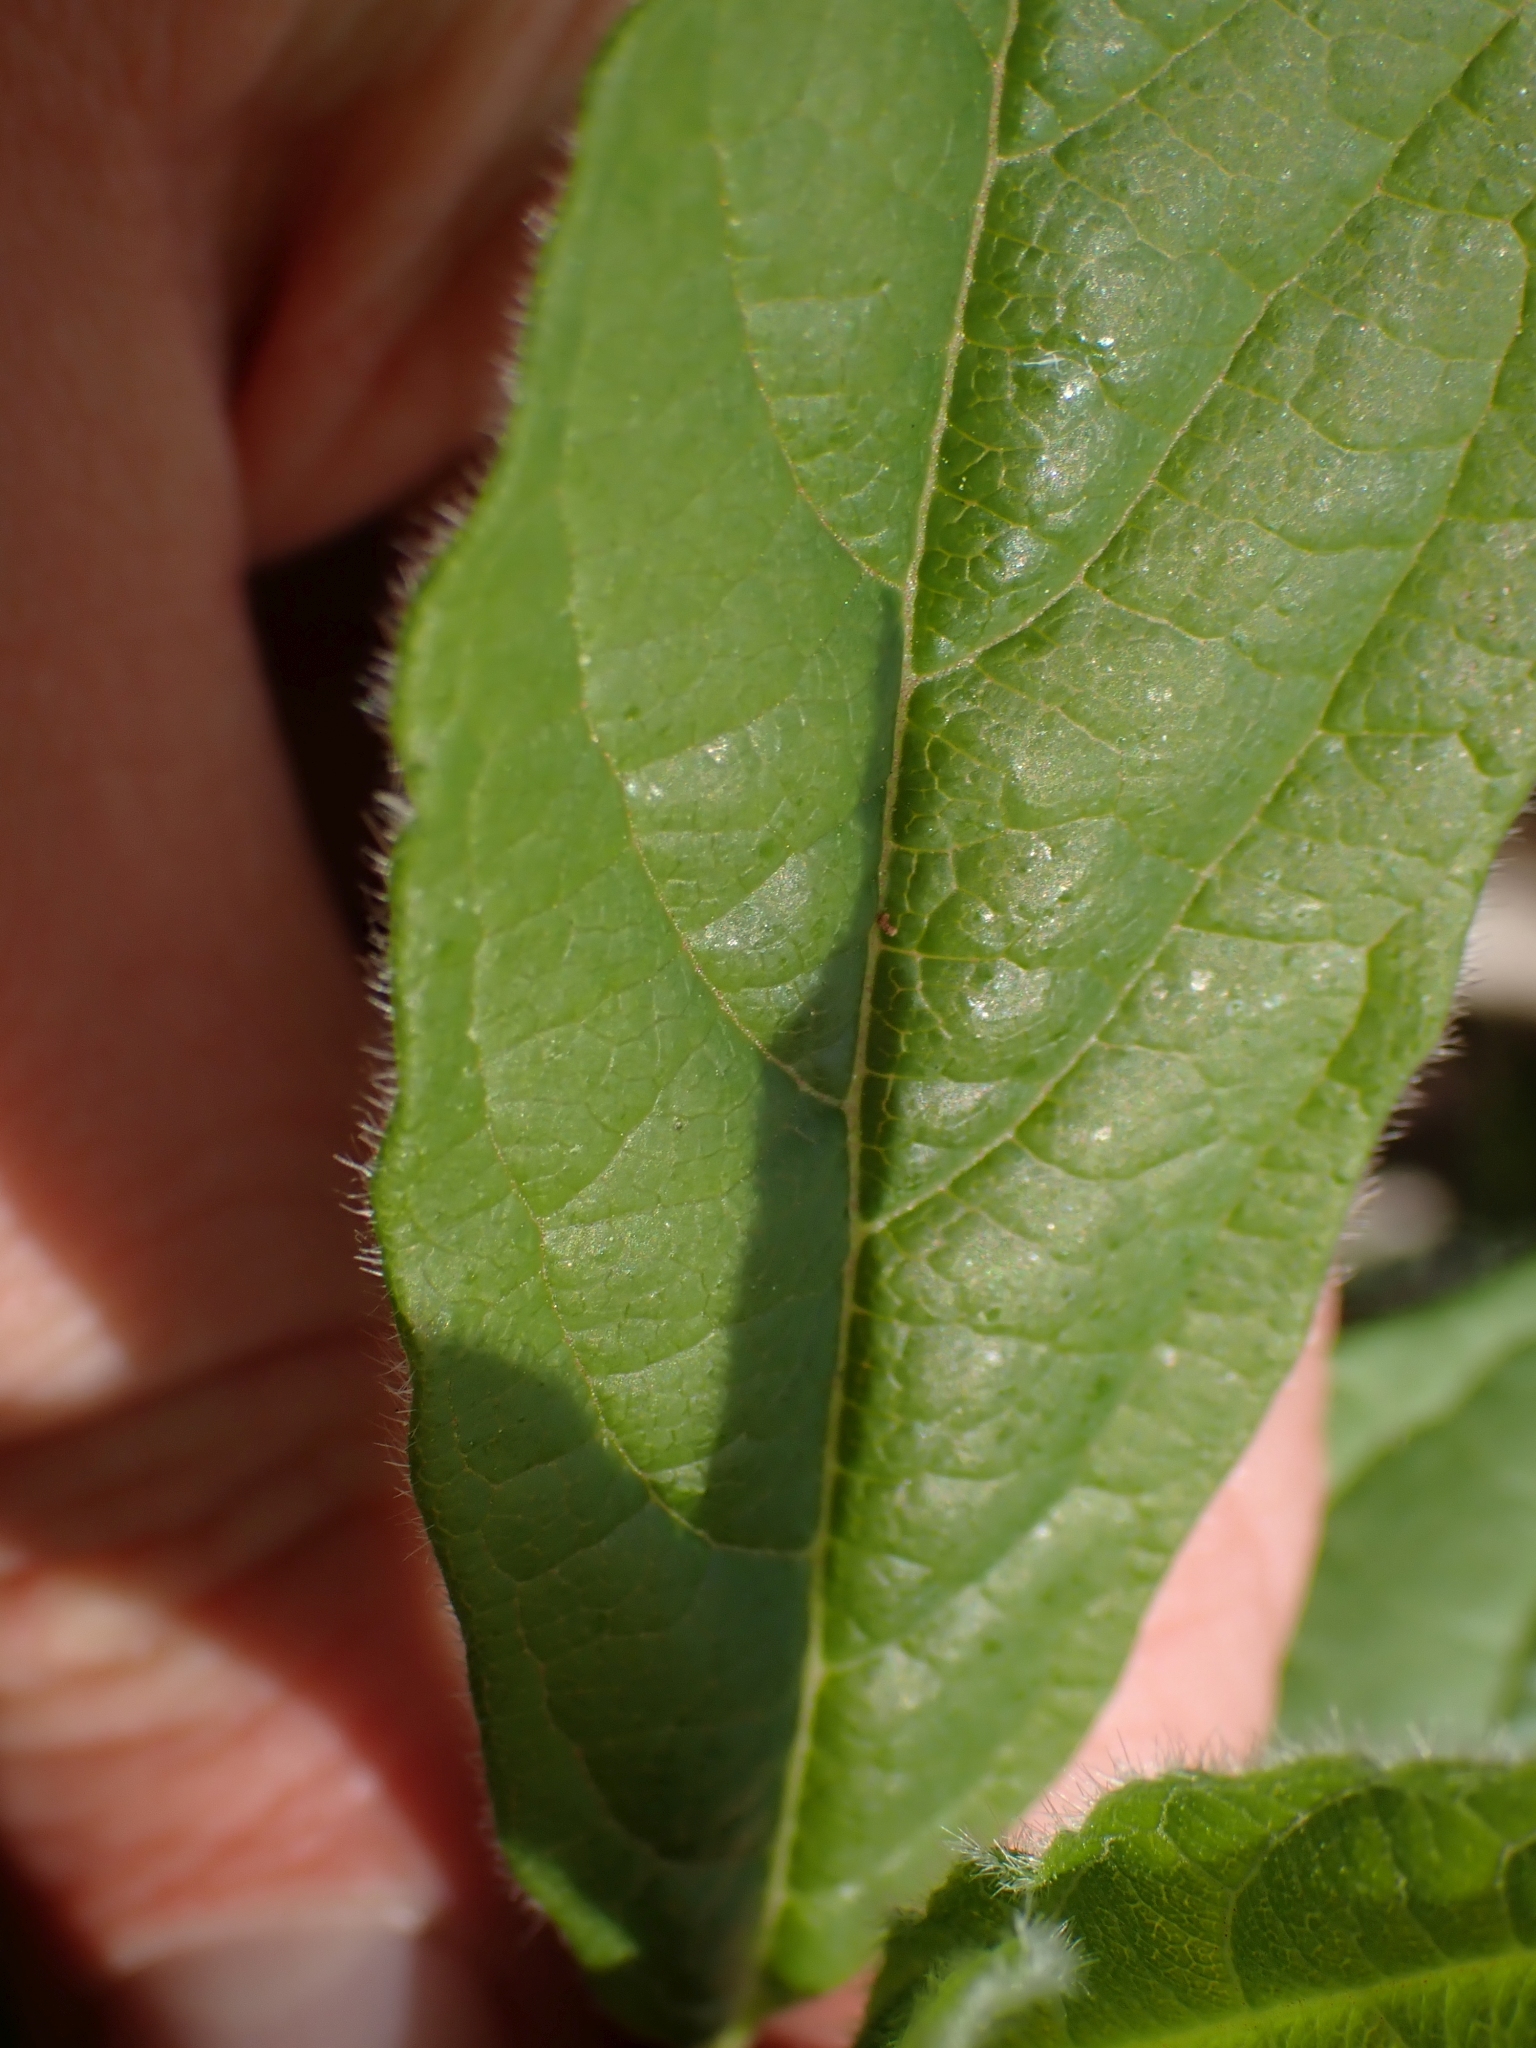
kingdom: Plantae
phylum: Tracheophyta
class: Magnoliopsida
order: Dipsacales
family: Caprifoliaceae
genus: Lonicera
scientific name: Lonicera involucrata
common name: Californian honeysuckle
